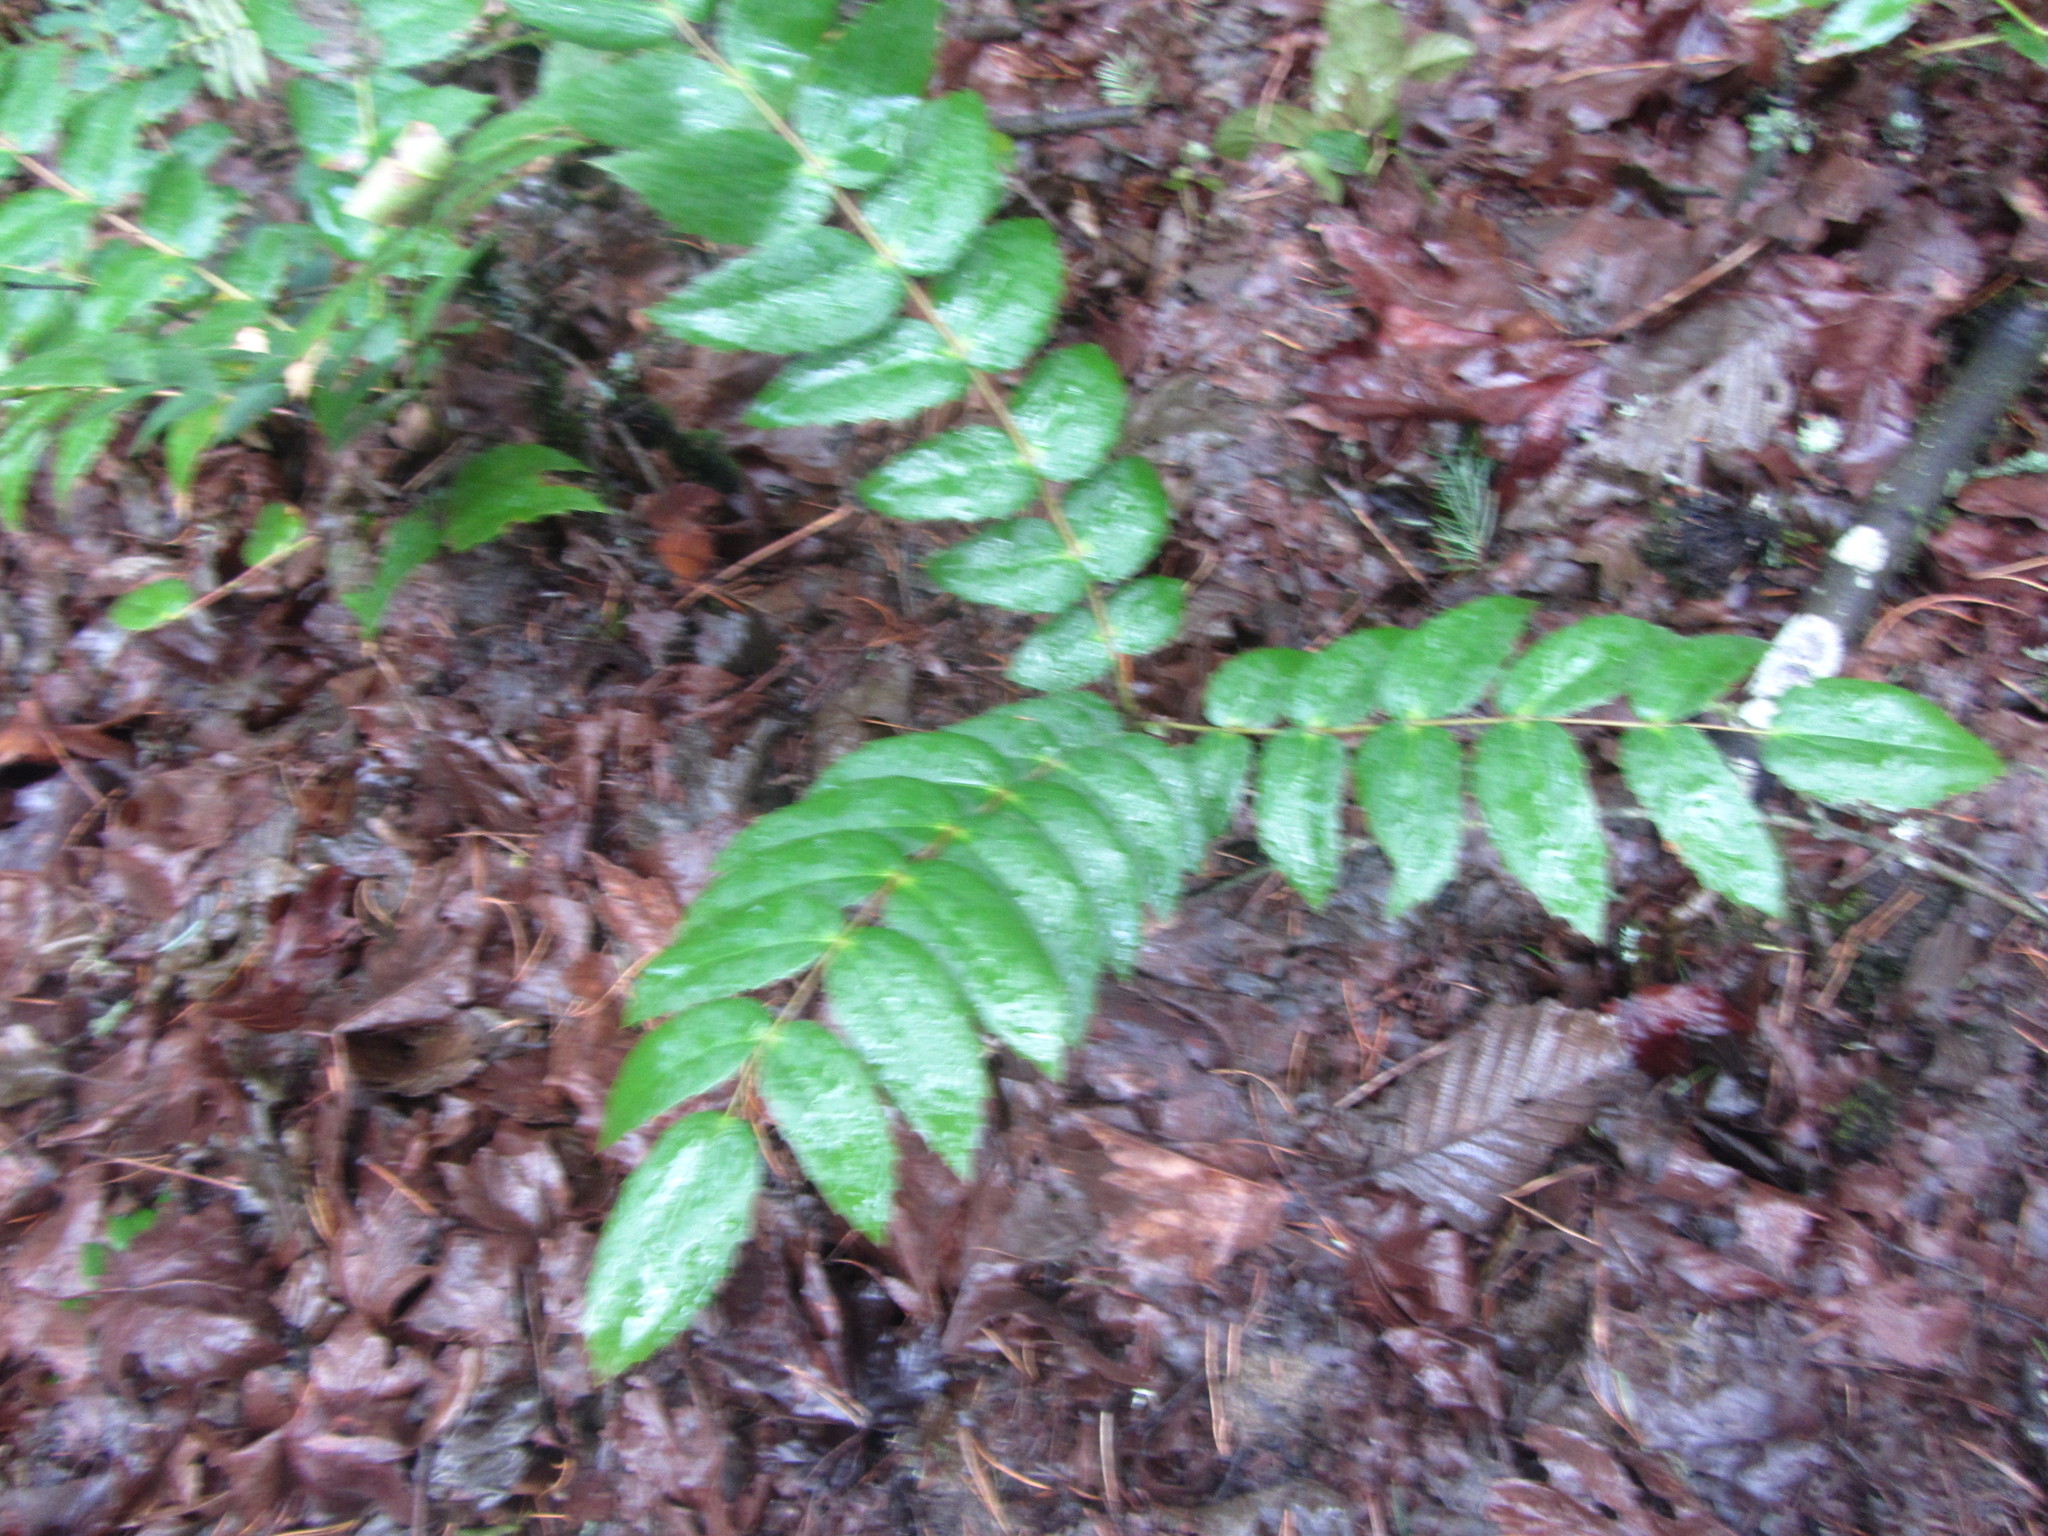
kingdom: Plantae
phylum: Tracheophyta
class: Magnoliopsida
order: Ranunculales
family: Berberidaceae
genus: Mahonia
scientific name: Mahonia nervosa
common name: Cascade oregon-grape
